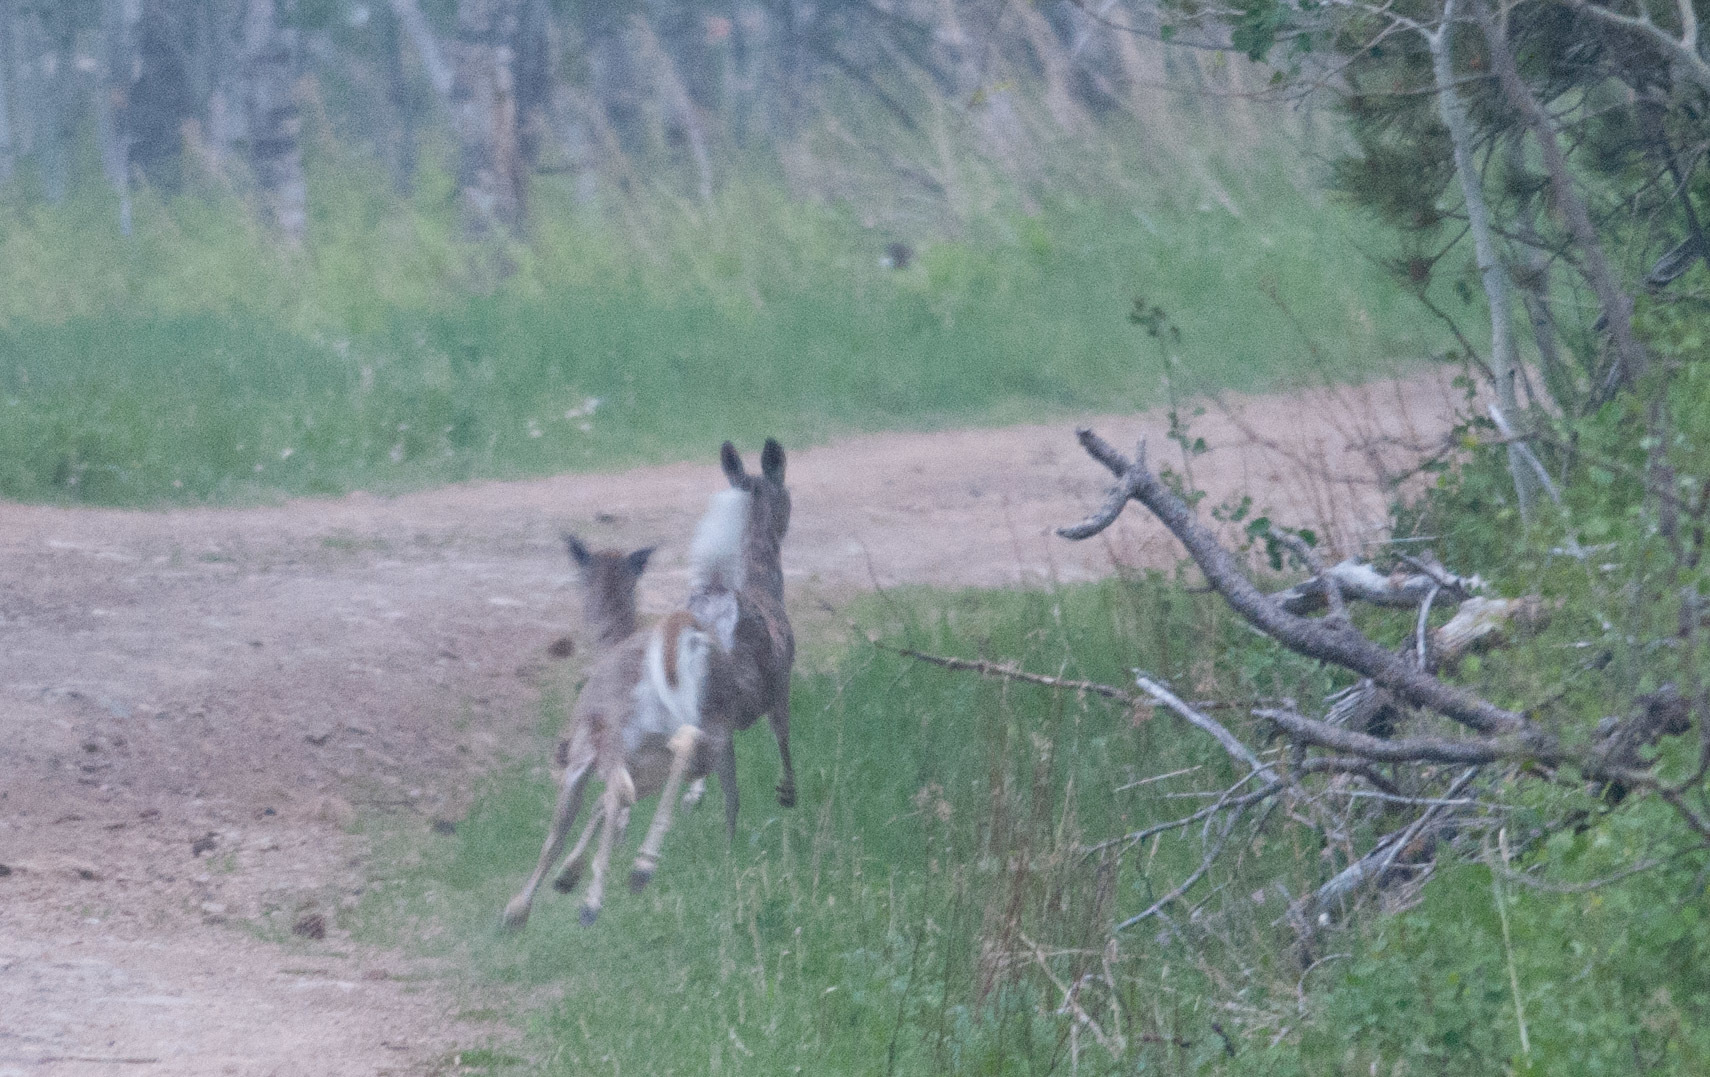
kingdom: Animalia
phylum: Chordata
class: Mammalia
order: Artiodactyla
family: Cervidae
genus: Odocoileus
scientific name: Odocoileus virginianus
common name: White-tailed deer
